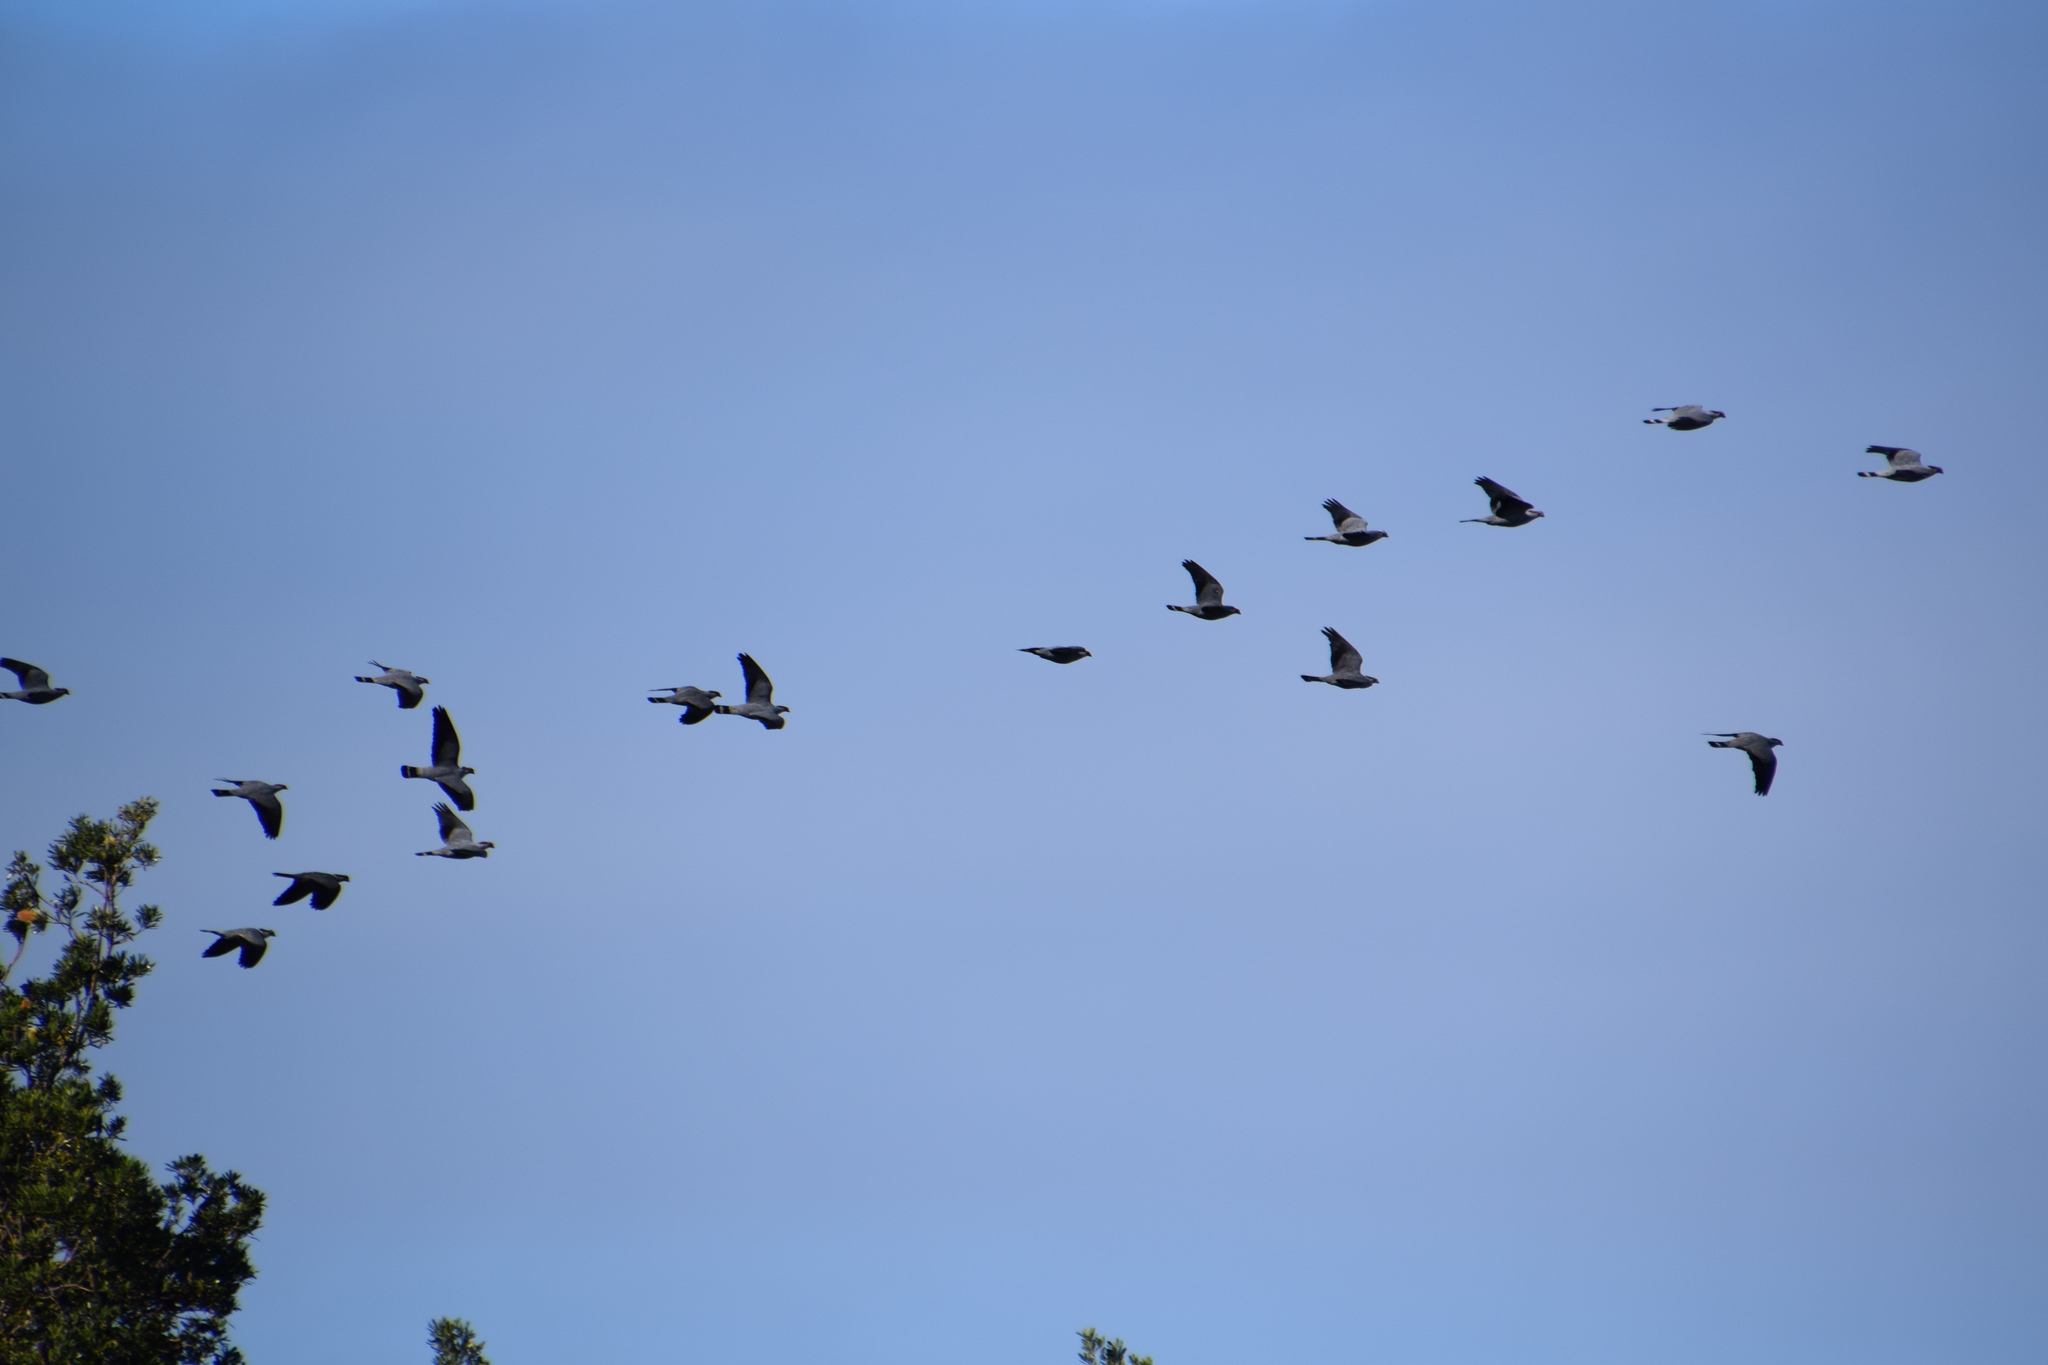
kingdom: Animalia
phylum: Chordata
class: Aves
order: Columbiformes
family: Columbidae
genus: Lopholaimus
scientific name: Lopholaimus antarcticus
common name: Topknot pigeon
